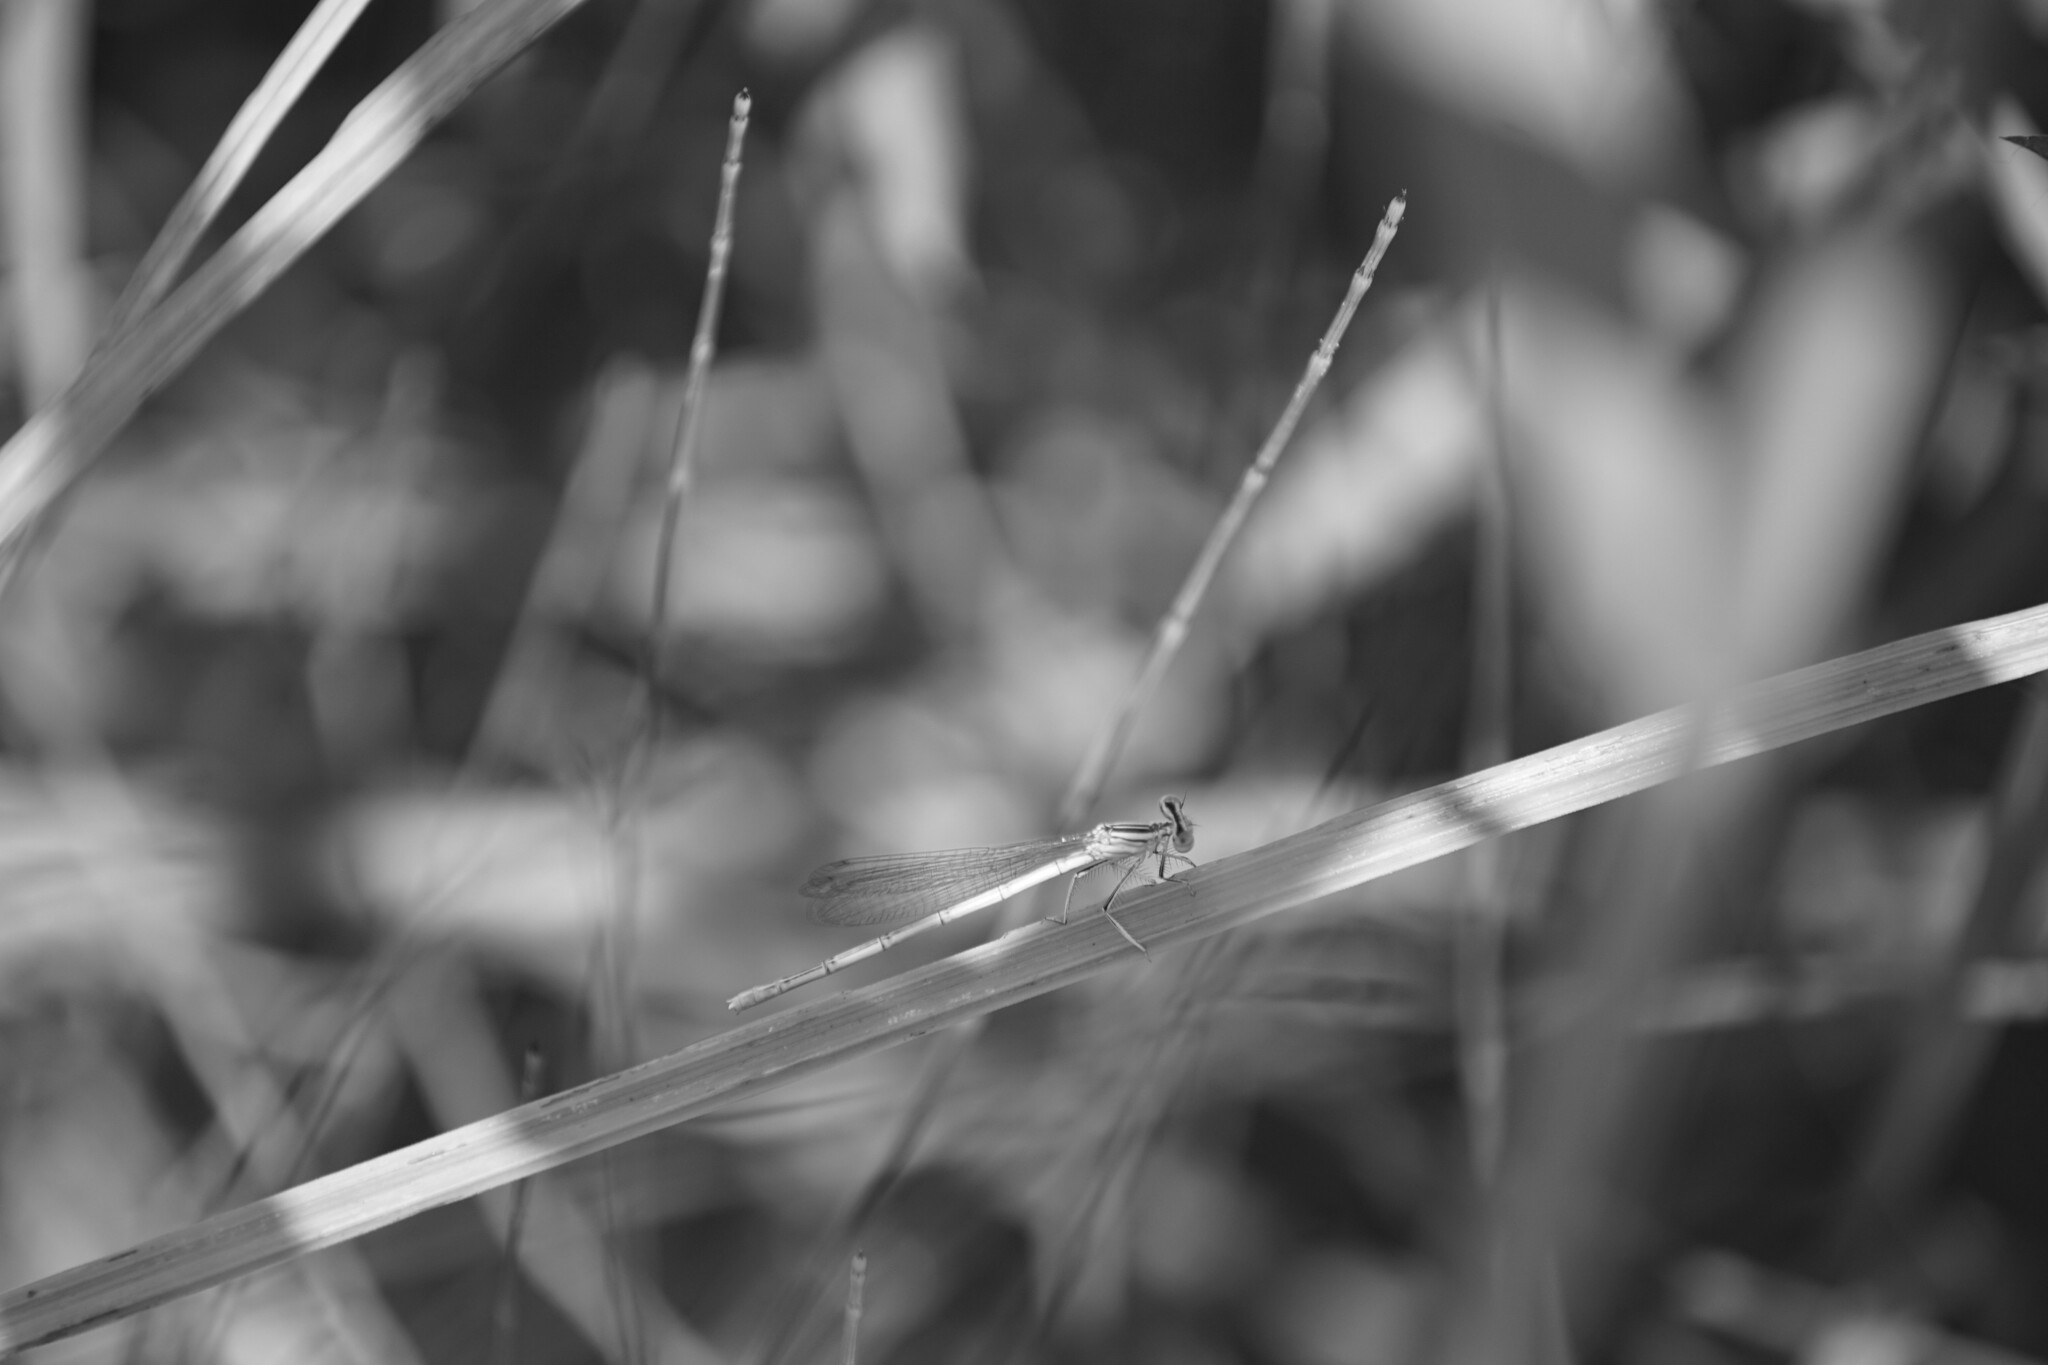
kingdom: Animalia
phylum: Arthropoda
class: Insecta
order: Odonata
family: Platycnemididae
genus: Platycnemis
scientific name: Platycnemis pennipes
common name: White-legged damselfly
